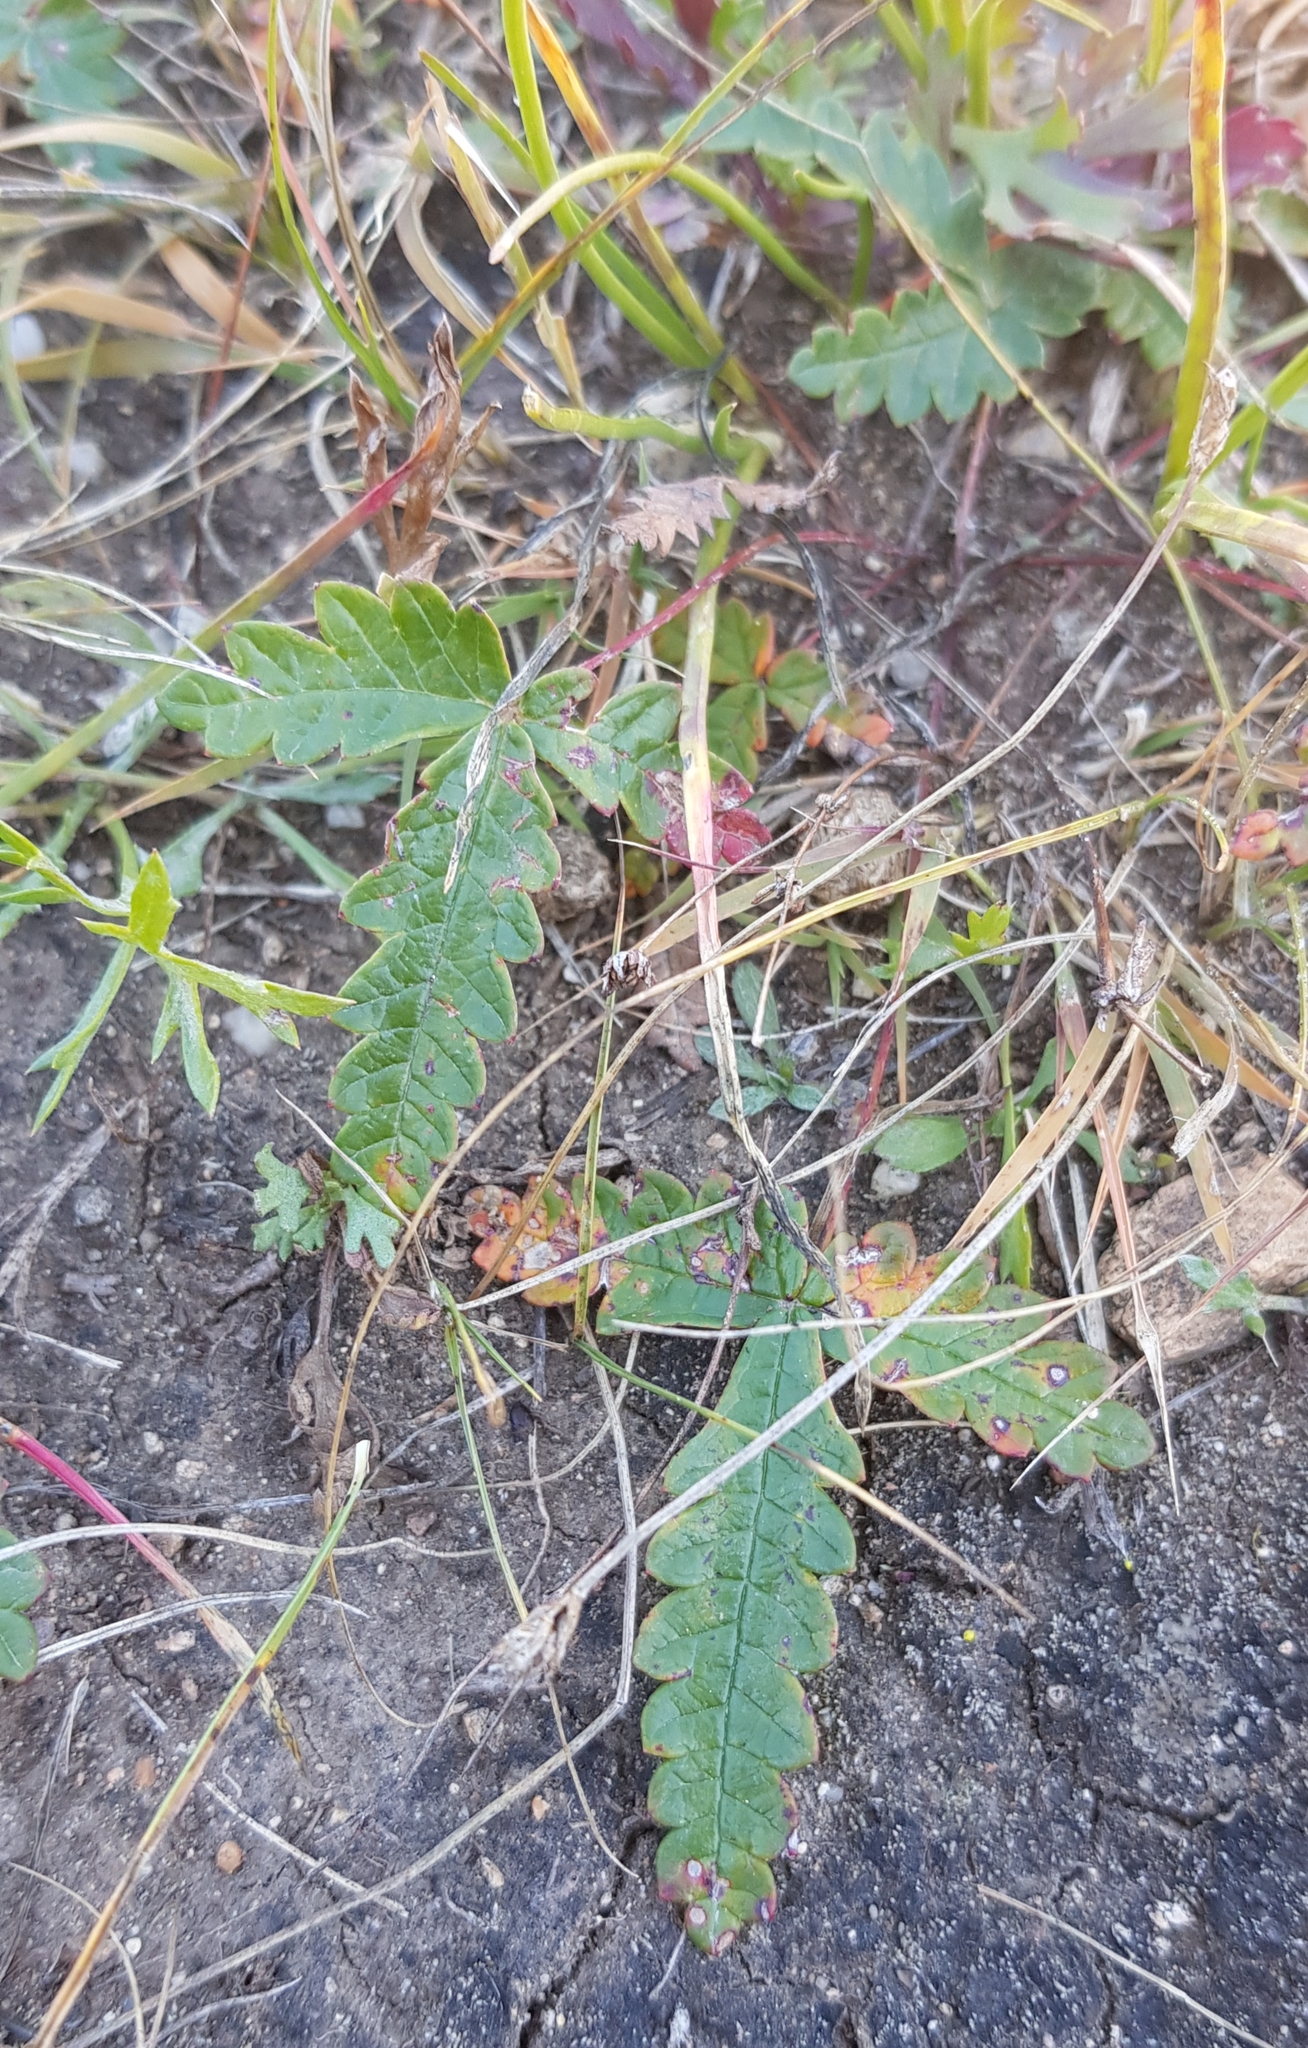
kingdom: Plantae
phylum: Tracheophyta
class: Magnoliopsida
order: Rosales
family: Rosaceae
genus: Potentilla
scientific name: Potentilla
